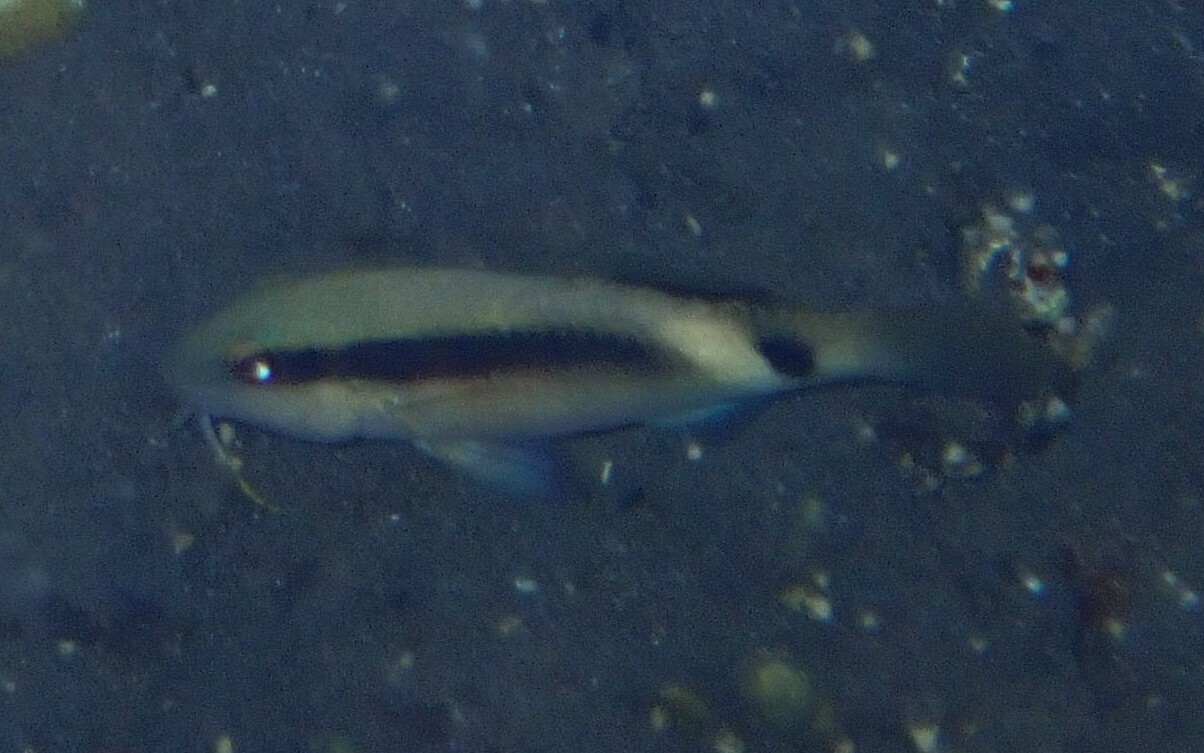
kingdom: Animalia
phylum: Chordata
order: Perciformes
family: Mullidae
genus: Parupeneus
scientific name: Parupeneus macronemus
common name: Long-barbel goatfish
